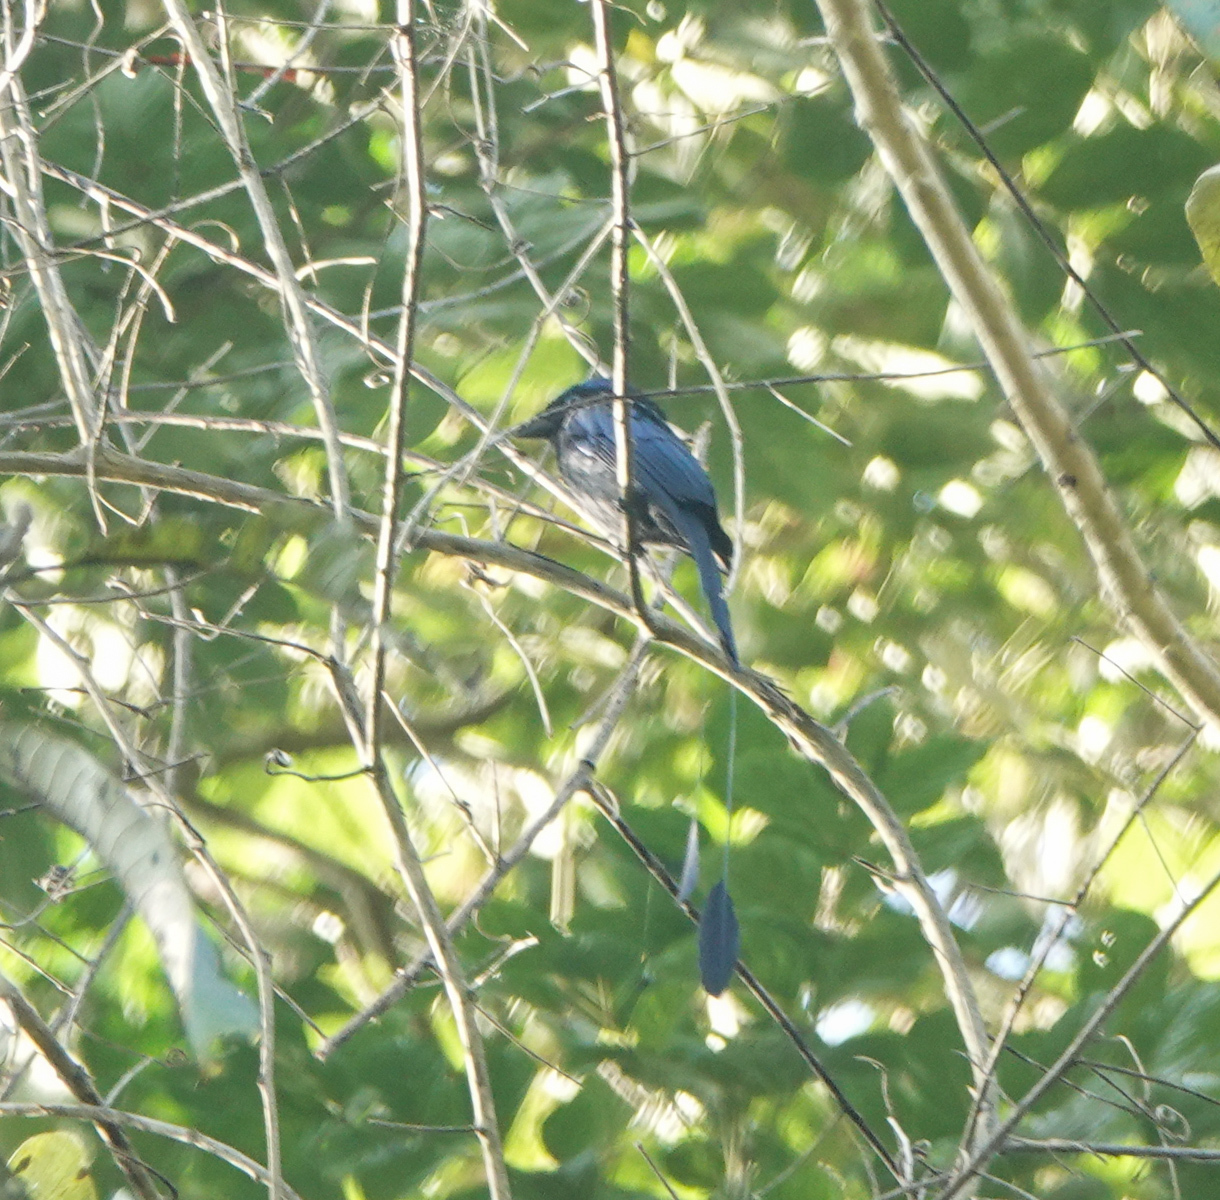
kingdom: Animalia
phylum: Chordata
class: Aves
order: Passeriformes
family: Dicruridae
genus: Dicrurus
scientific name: Dicrurus remifer
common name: Lesser racket-tailed drongo
